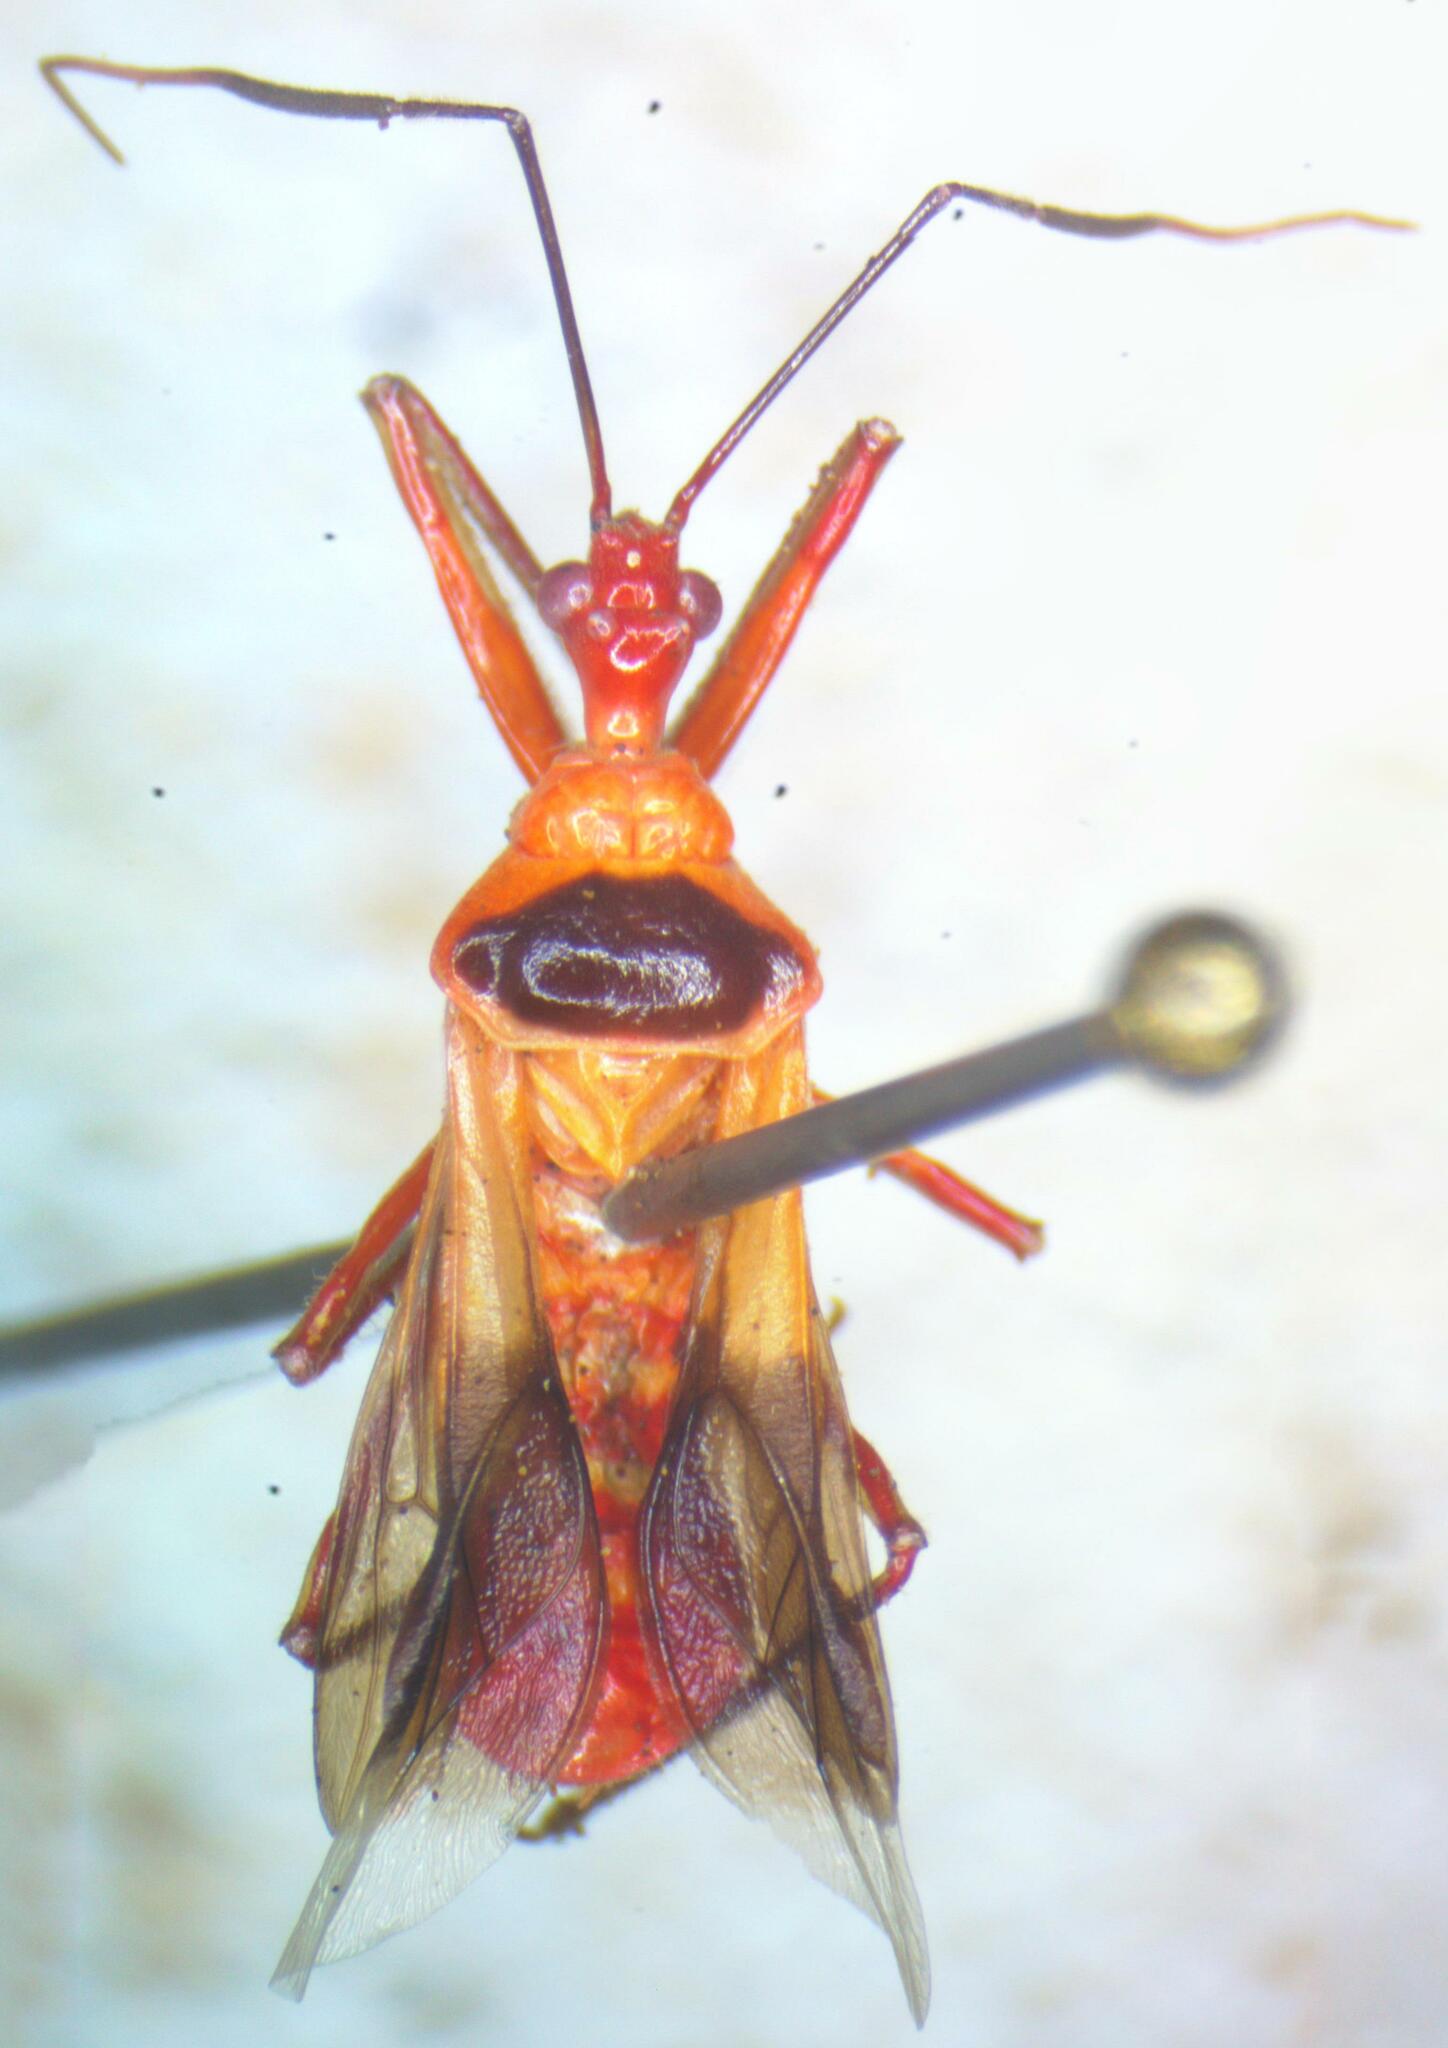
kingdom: Animalia
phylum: Arthropoda
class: Insecta
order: Hemiptera
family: Reduviidae
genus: Castolus
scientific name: Castolus plagiaticollis
